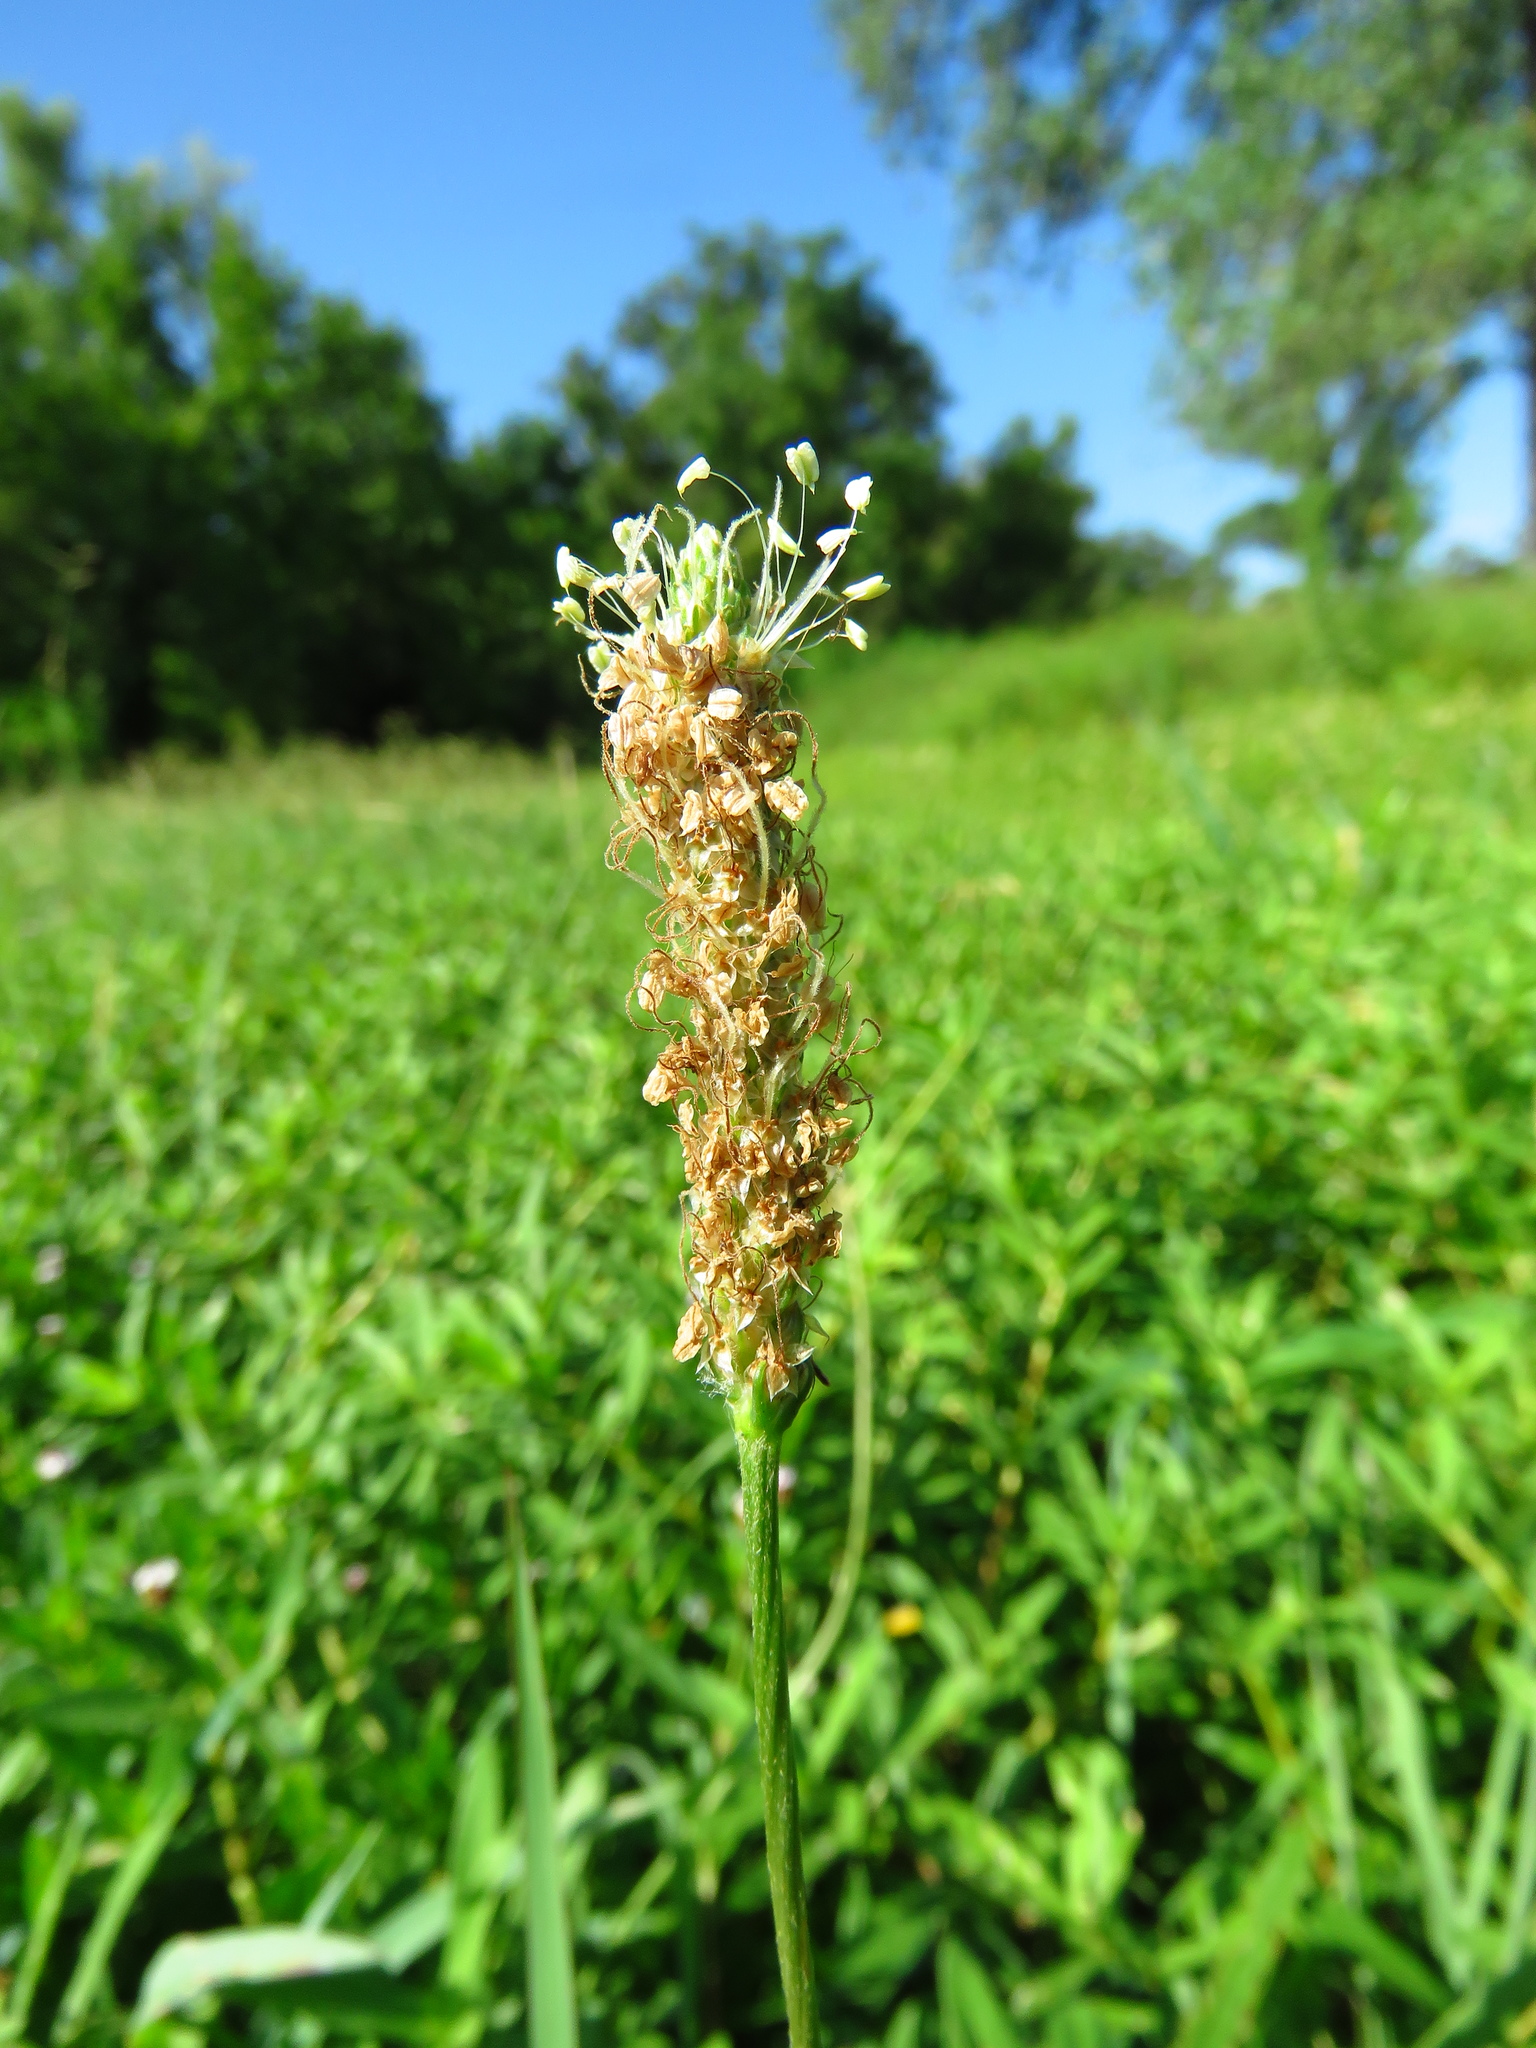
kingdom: Plantae
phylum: Tracheophyta
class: Magnoliopsida
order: Lamiales
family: Plantaginaceae
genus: Plantago
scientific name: Plantago lanceolata
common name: Ribwort plantain
